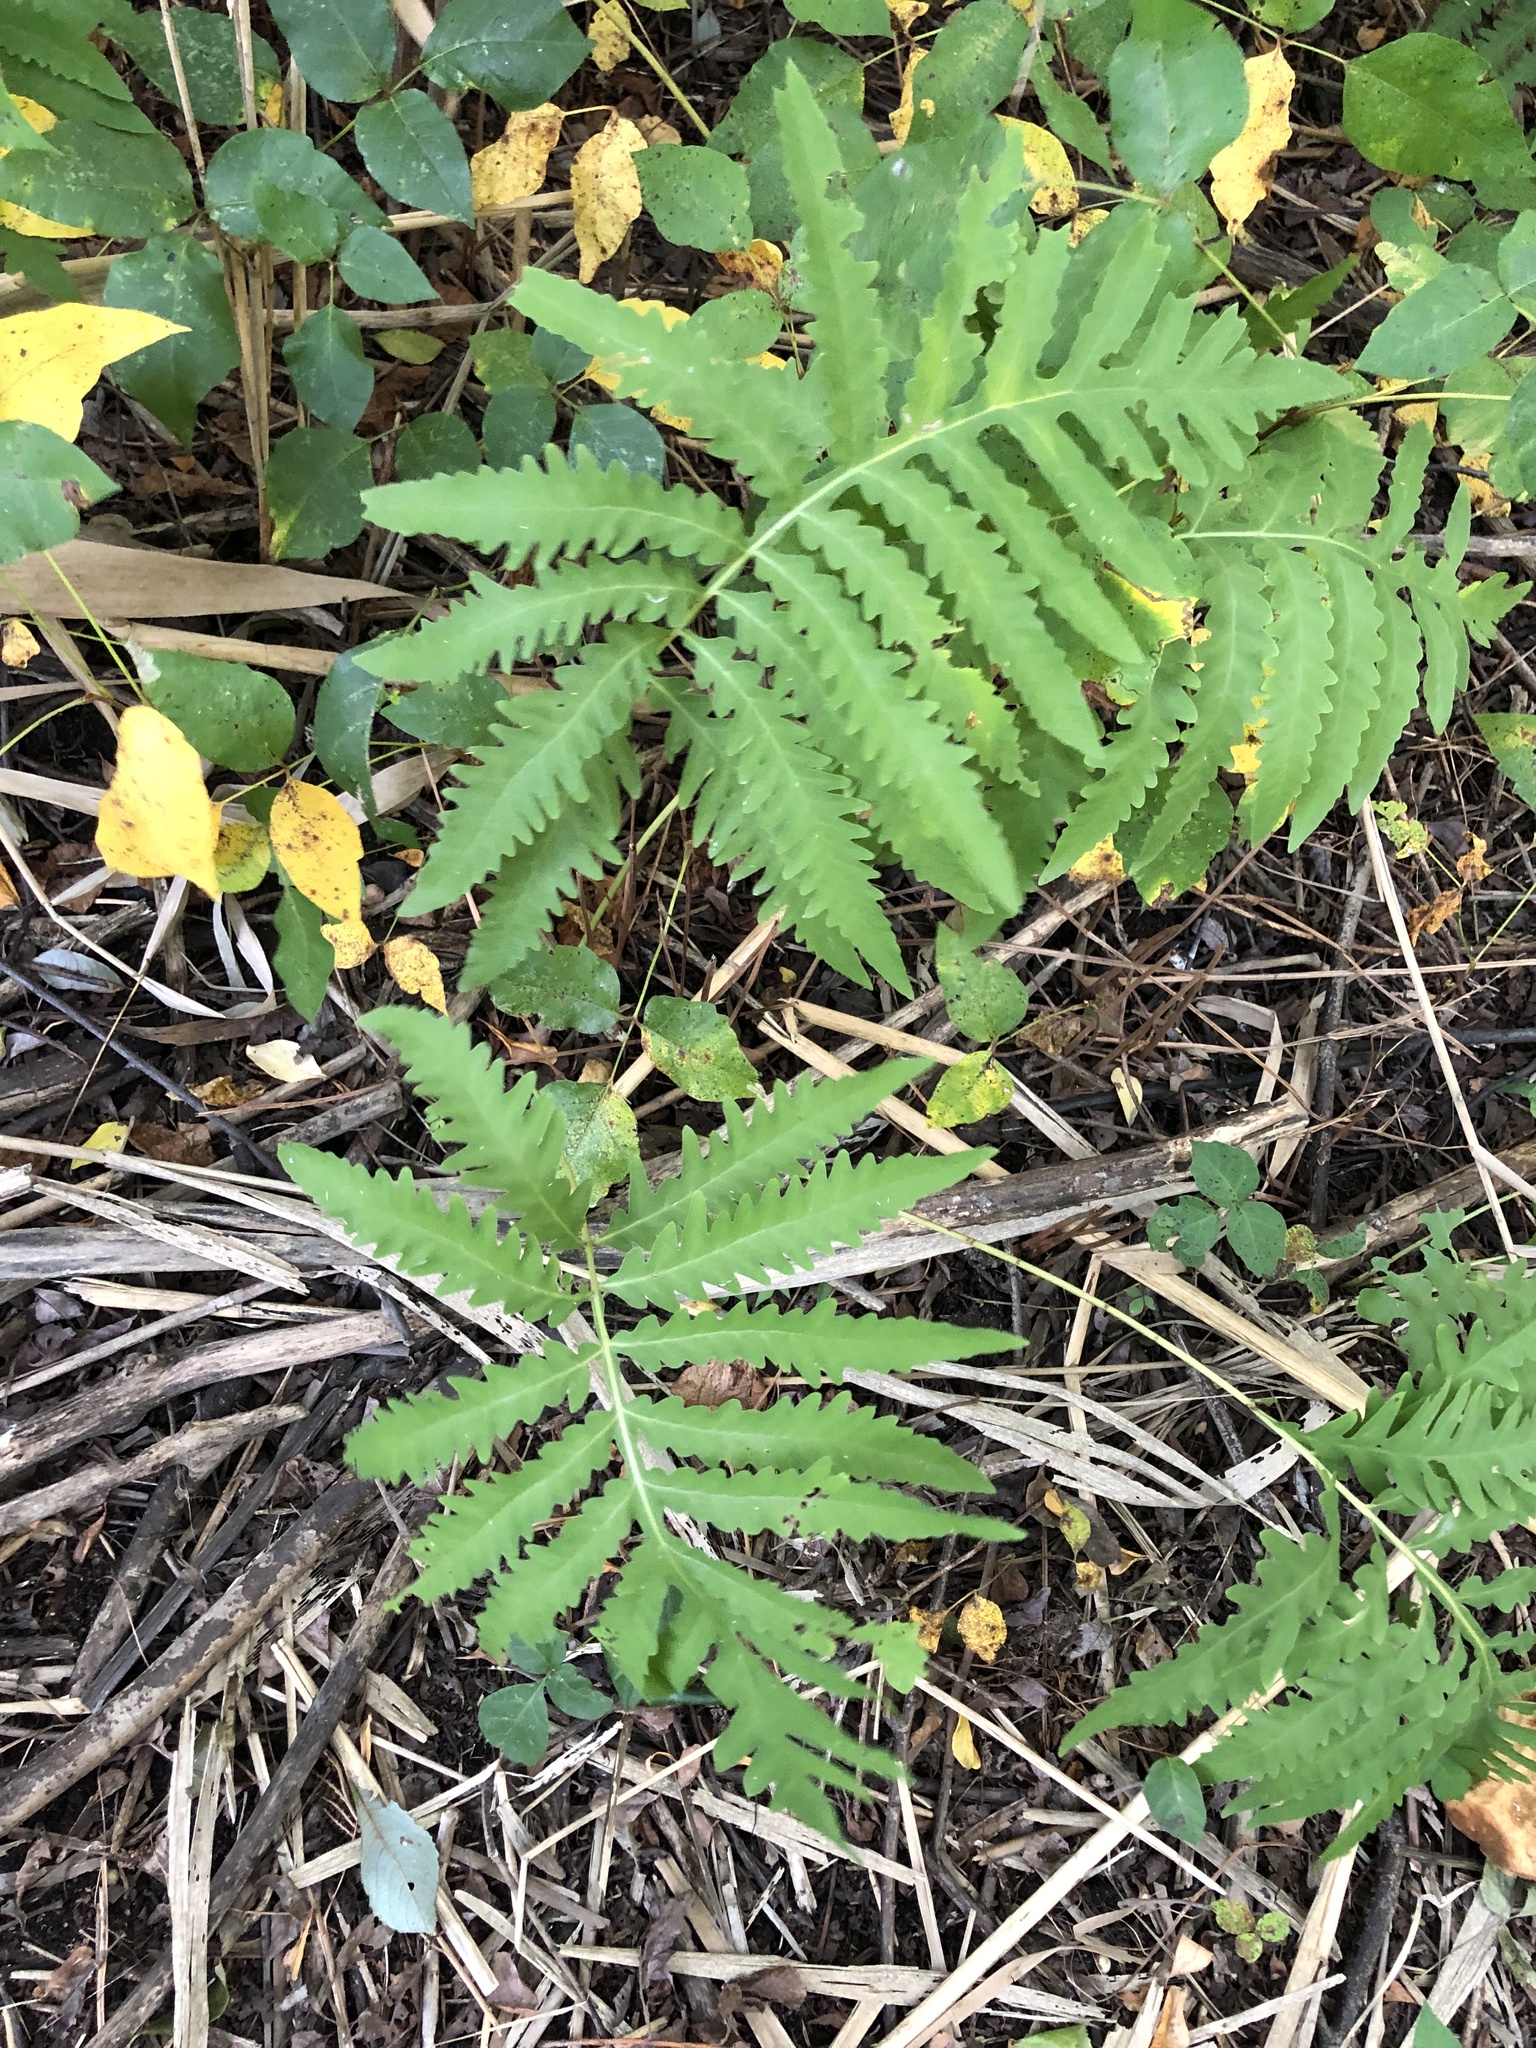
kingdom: Plantae
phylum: Tracheophyta
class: Polypodiopsida
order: Polypodiales
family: Onocleaceae
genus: Onoclea
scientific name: Onoclea sensibilis
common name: Sensitive fern
